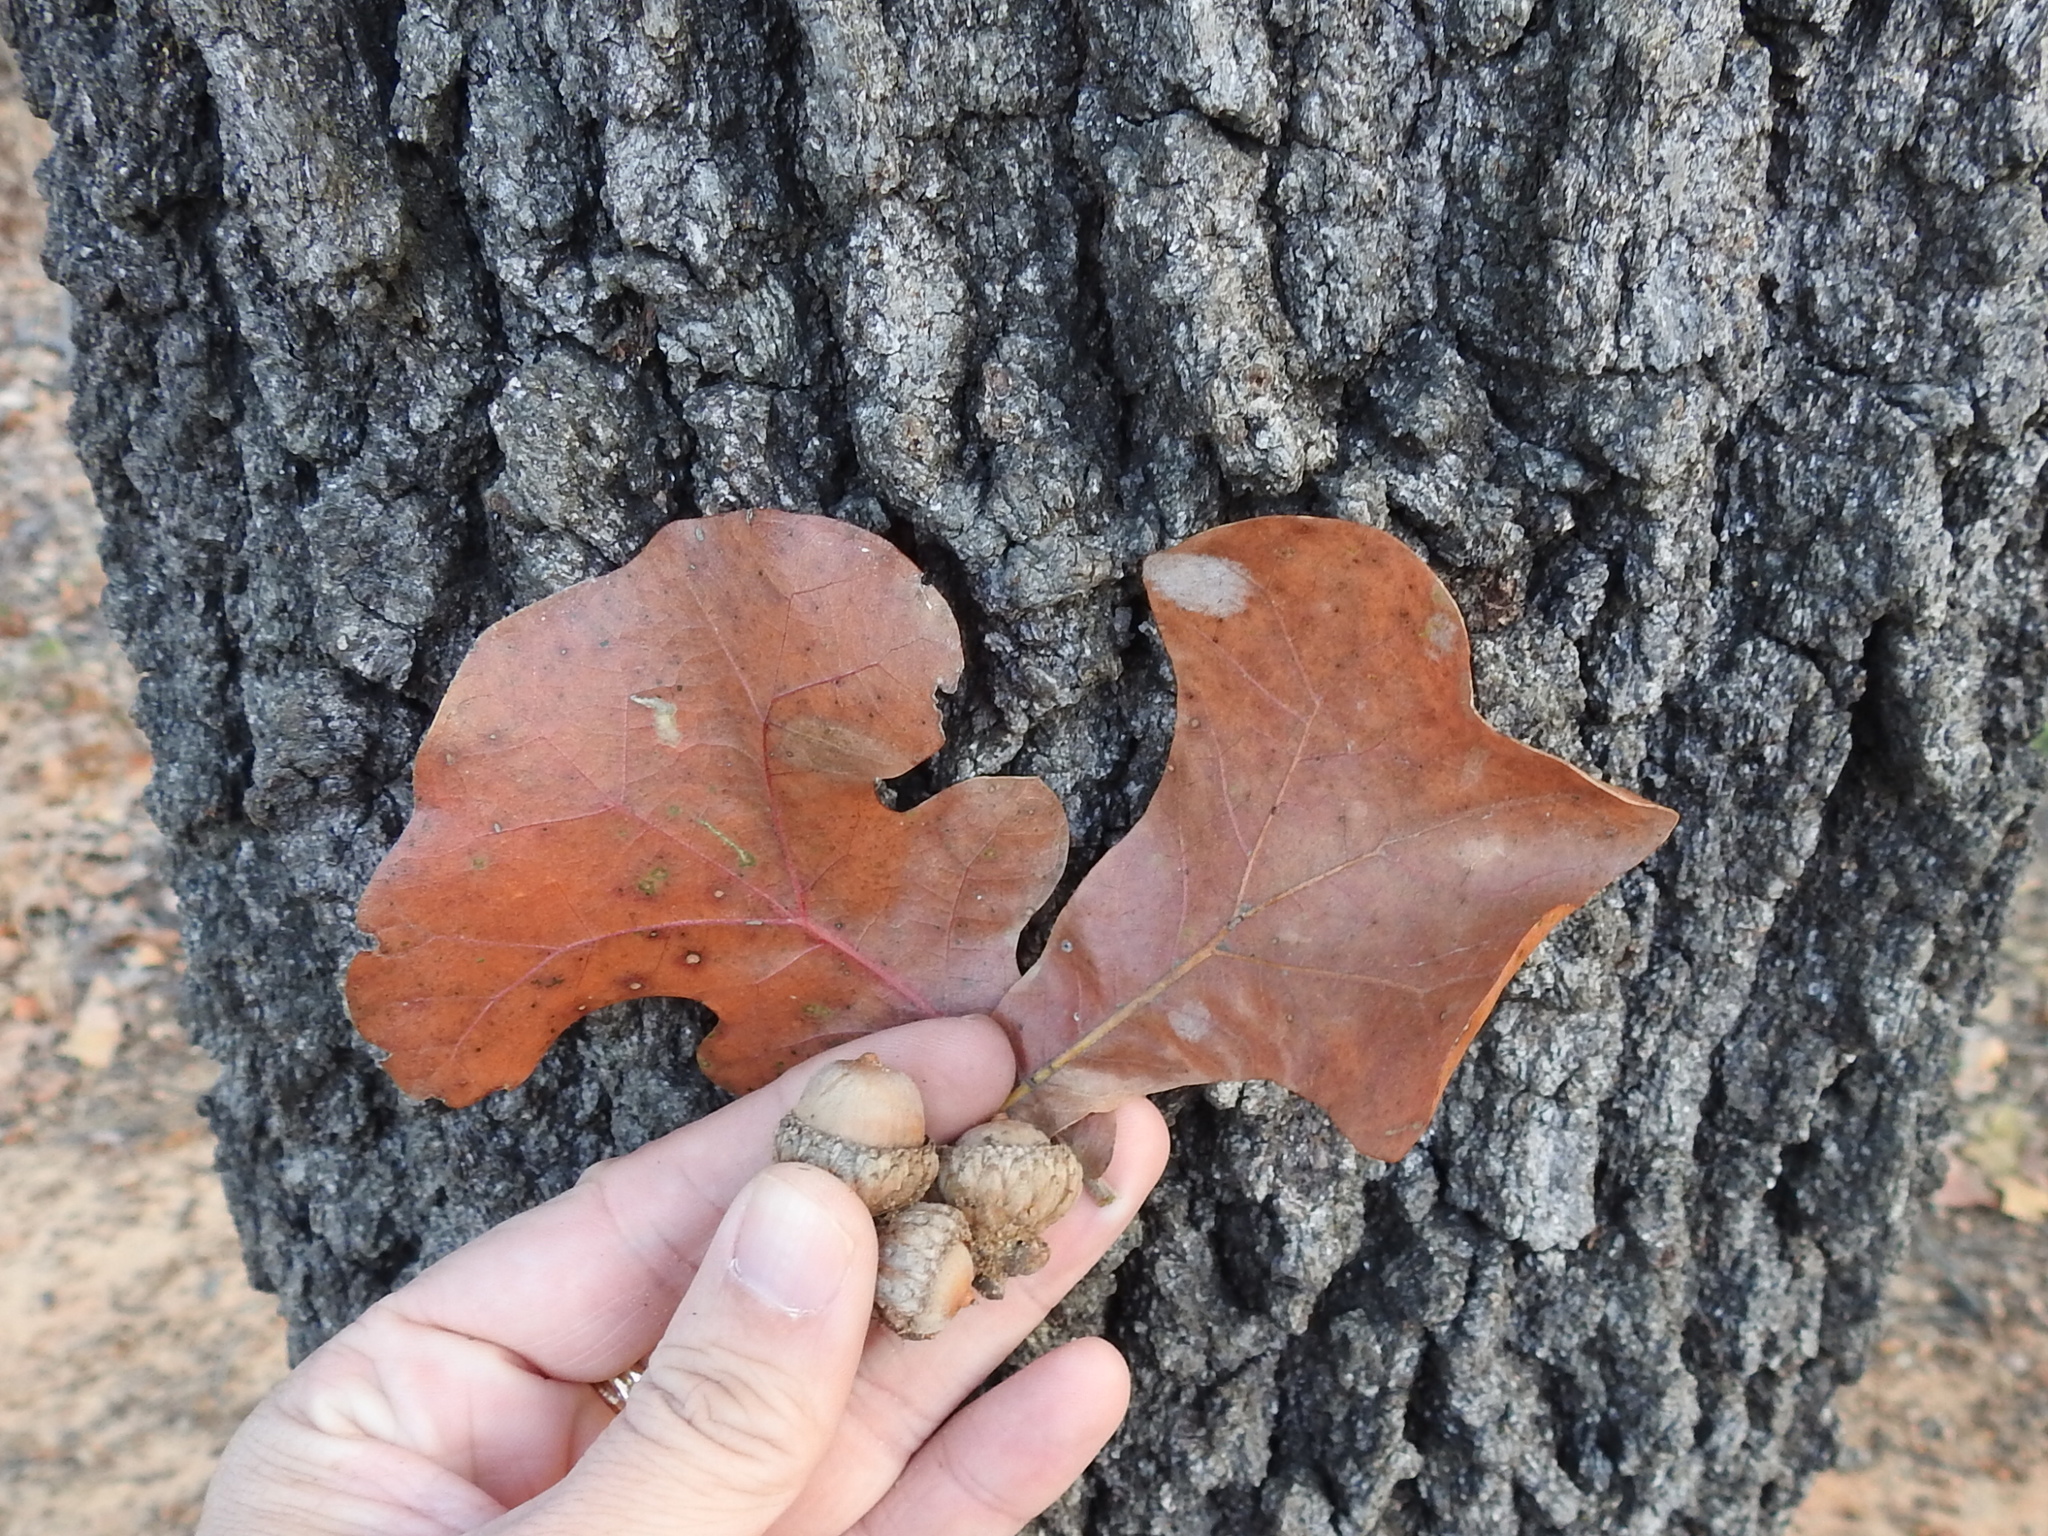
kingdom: Plantae
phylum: Tracheophyta
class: Magnoliopsida
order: Fagales
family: Fagaceae
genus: Quercus
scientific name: Quercus marilandica
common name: Blackjack oak
